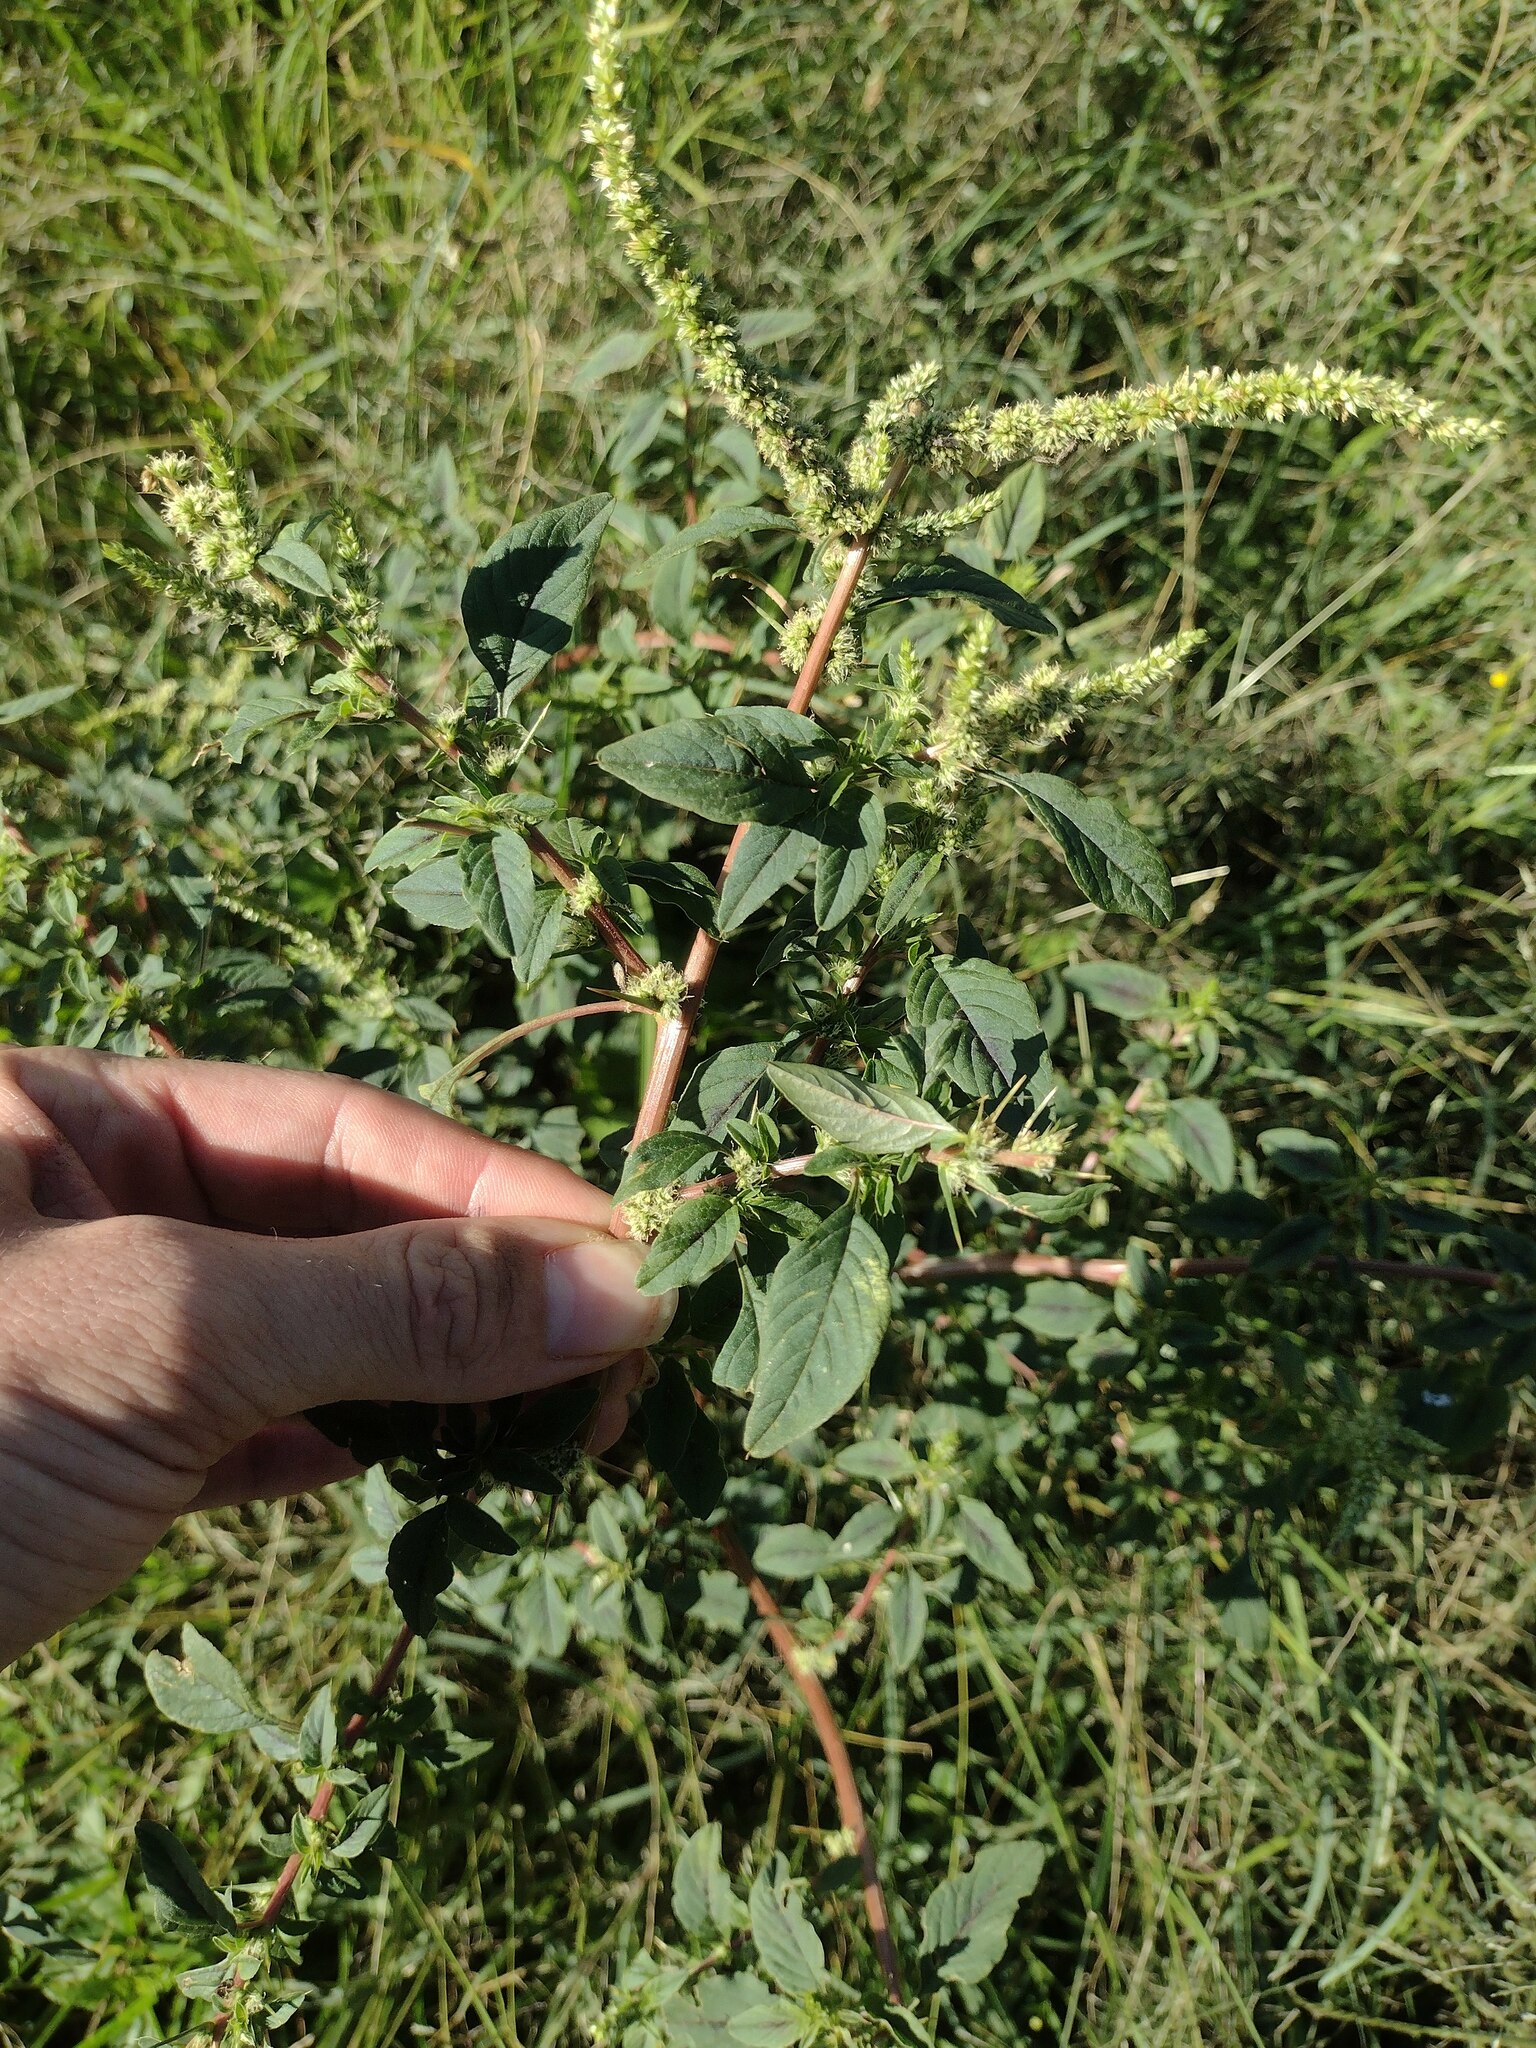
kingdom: Plantae
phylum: Tracheophyta
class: Magnoliopsida
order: Caryophyllales
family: Amaranthaceae
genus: Amaranthus
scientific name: Amaranthus spinosus
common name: Spiny amaranth
